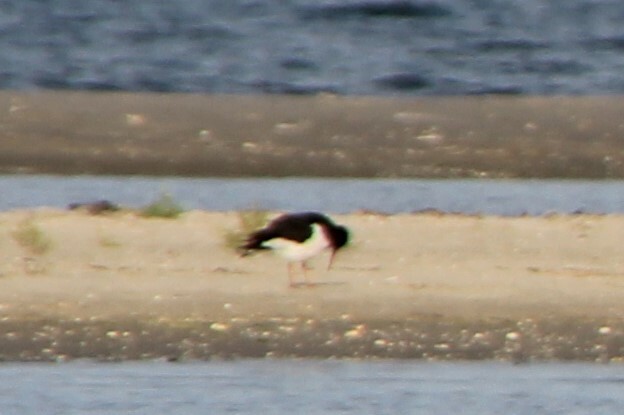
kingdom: Animalia
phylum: Chordata
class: Aves
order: Charadriiformes
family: Haematopodidae
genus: Haematopus
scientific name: Haematopus ostralegus
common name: Eurasian oystercatcher
